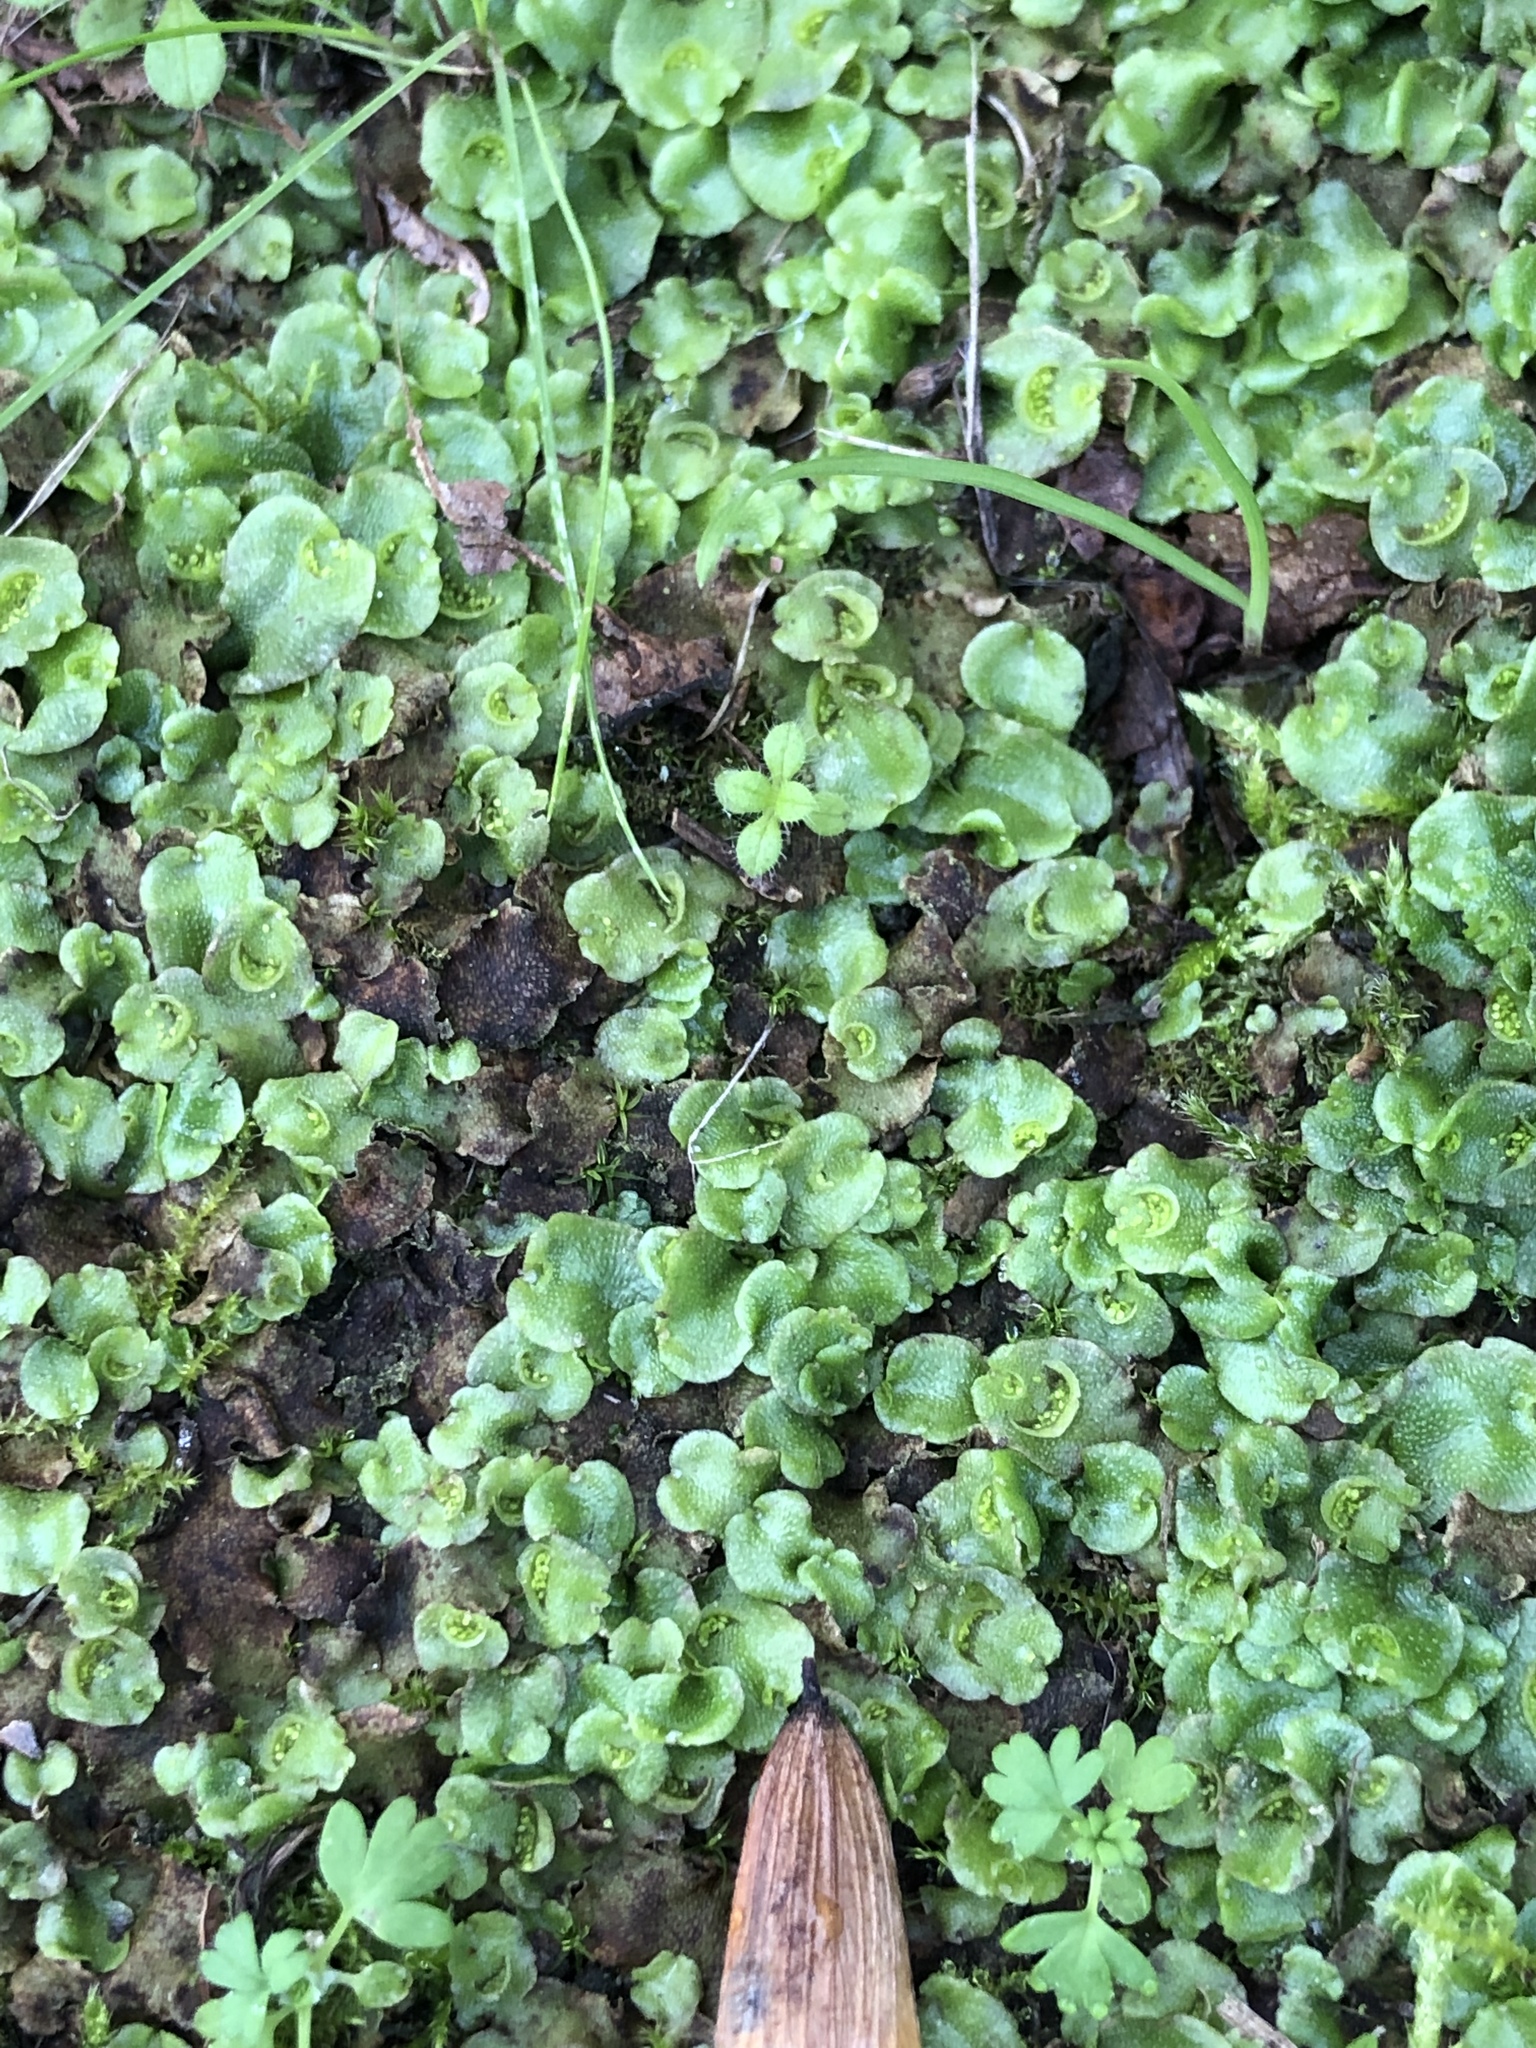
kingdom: Plantae
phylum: Marchantiophyta
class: Marchantiopsida
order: Lunulariales
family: Lunulariaceae
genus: Lunularia
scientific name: Lunularia cruciata
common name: Crescent-cup liverwort
